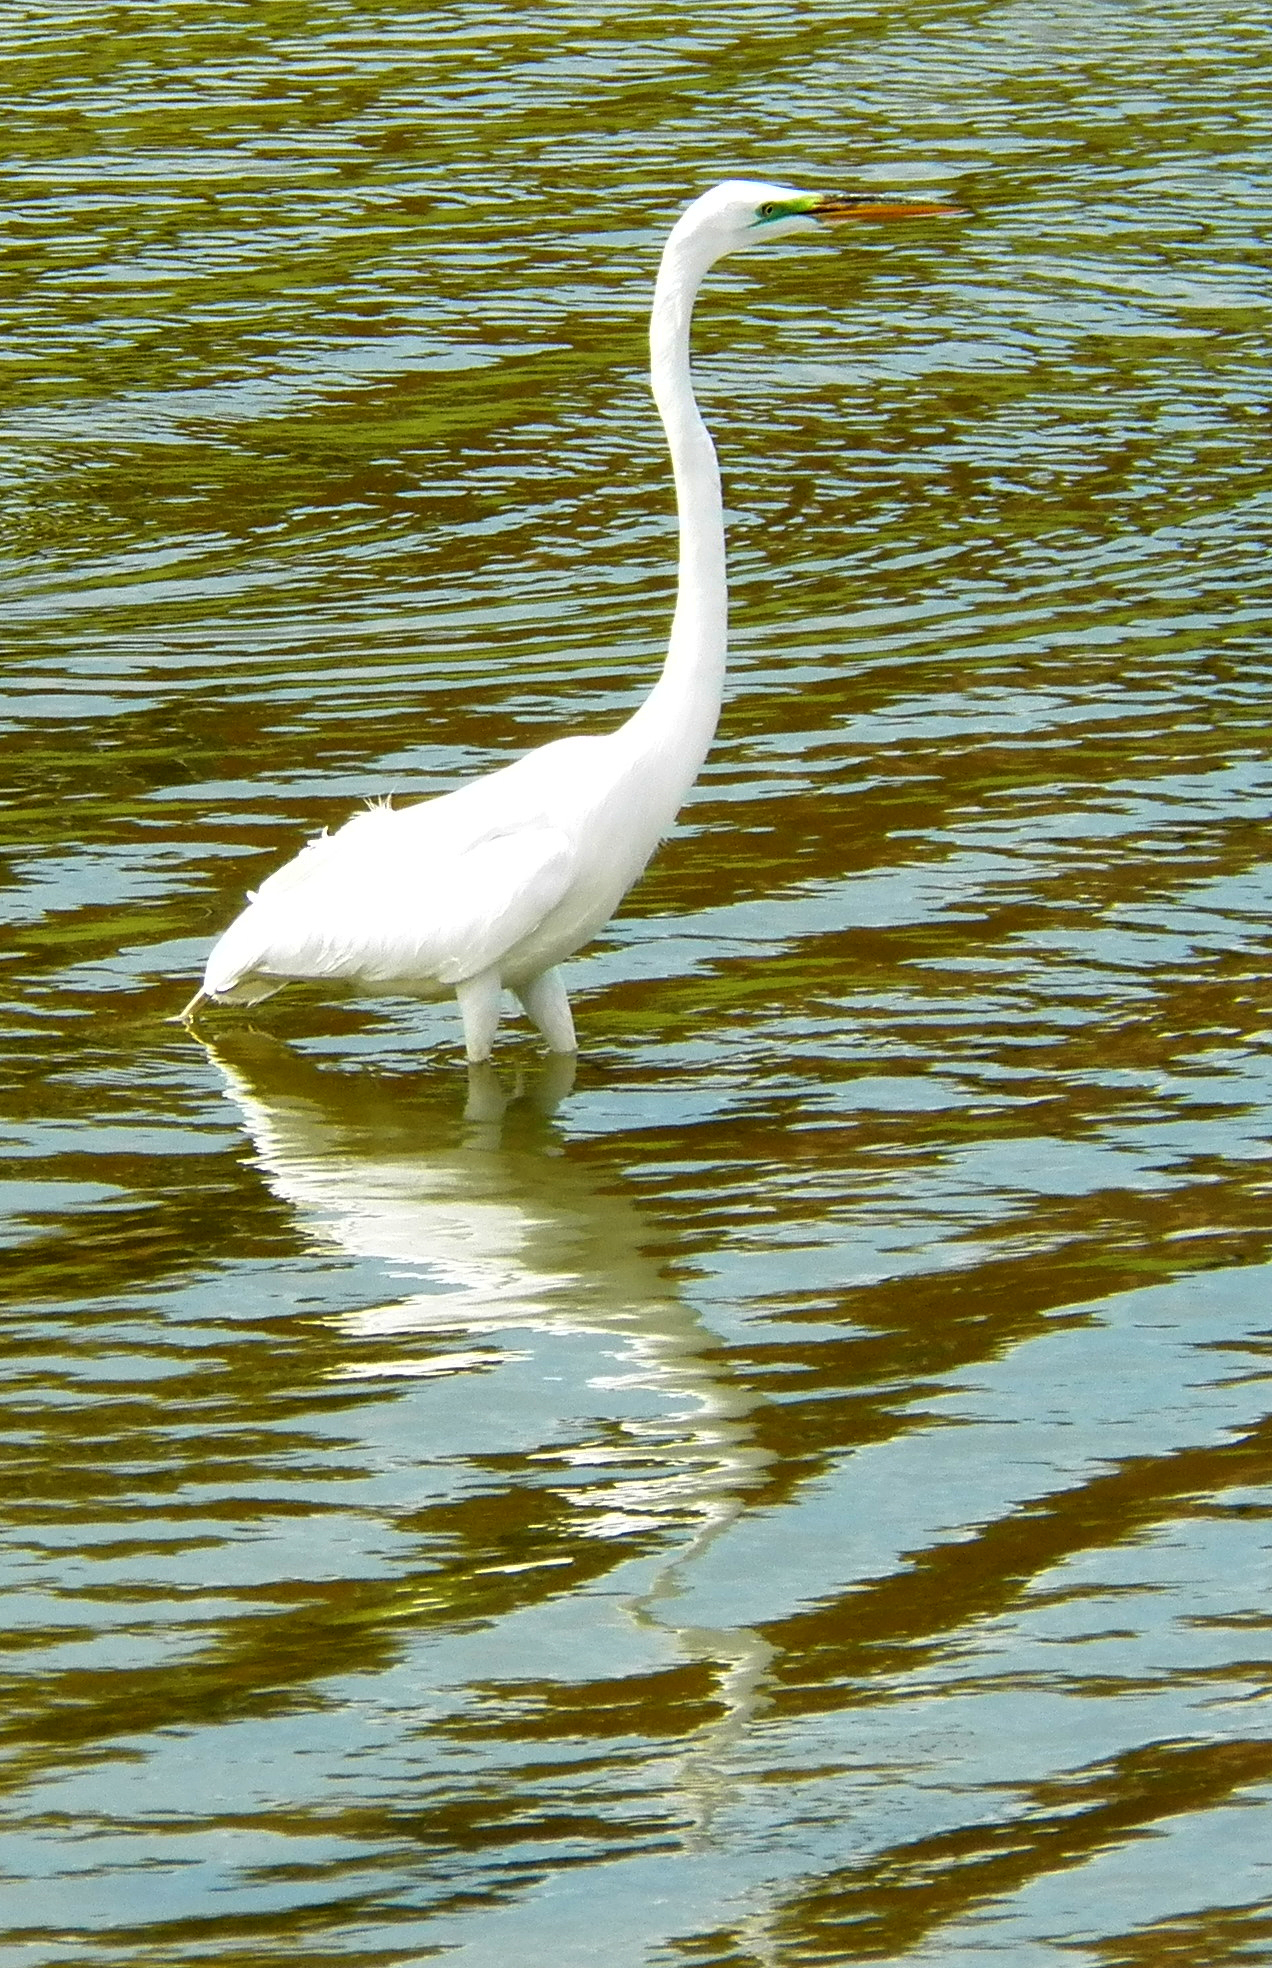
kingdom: Animalia
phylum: Chordata
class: Aves
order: Pelecaniformes
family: Ardeidae
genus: Ardea
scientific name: Ardea alba
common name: Great egret
